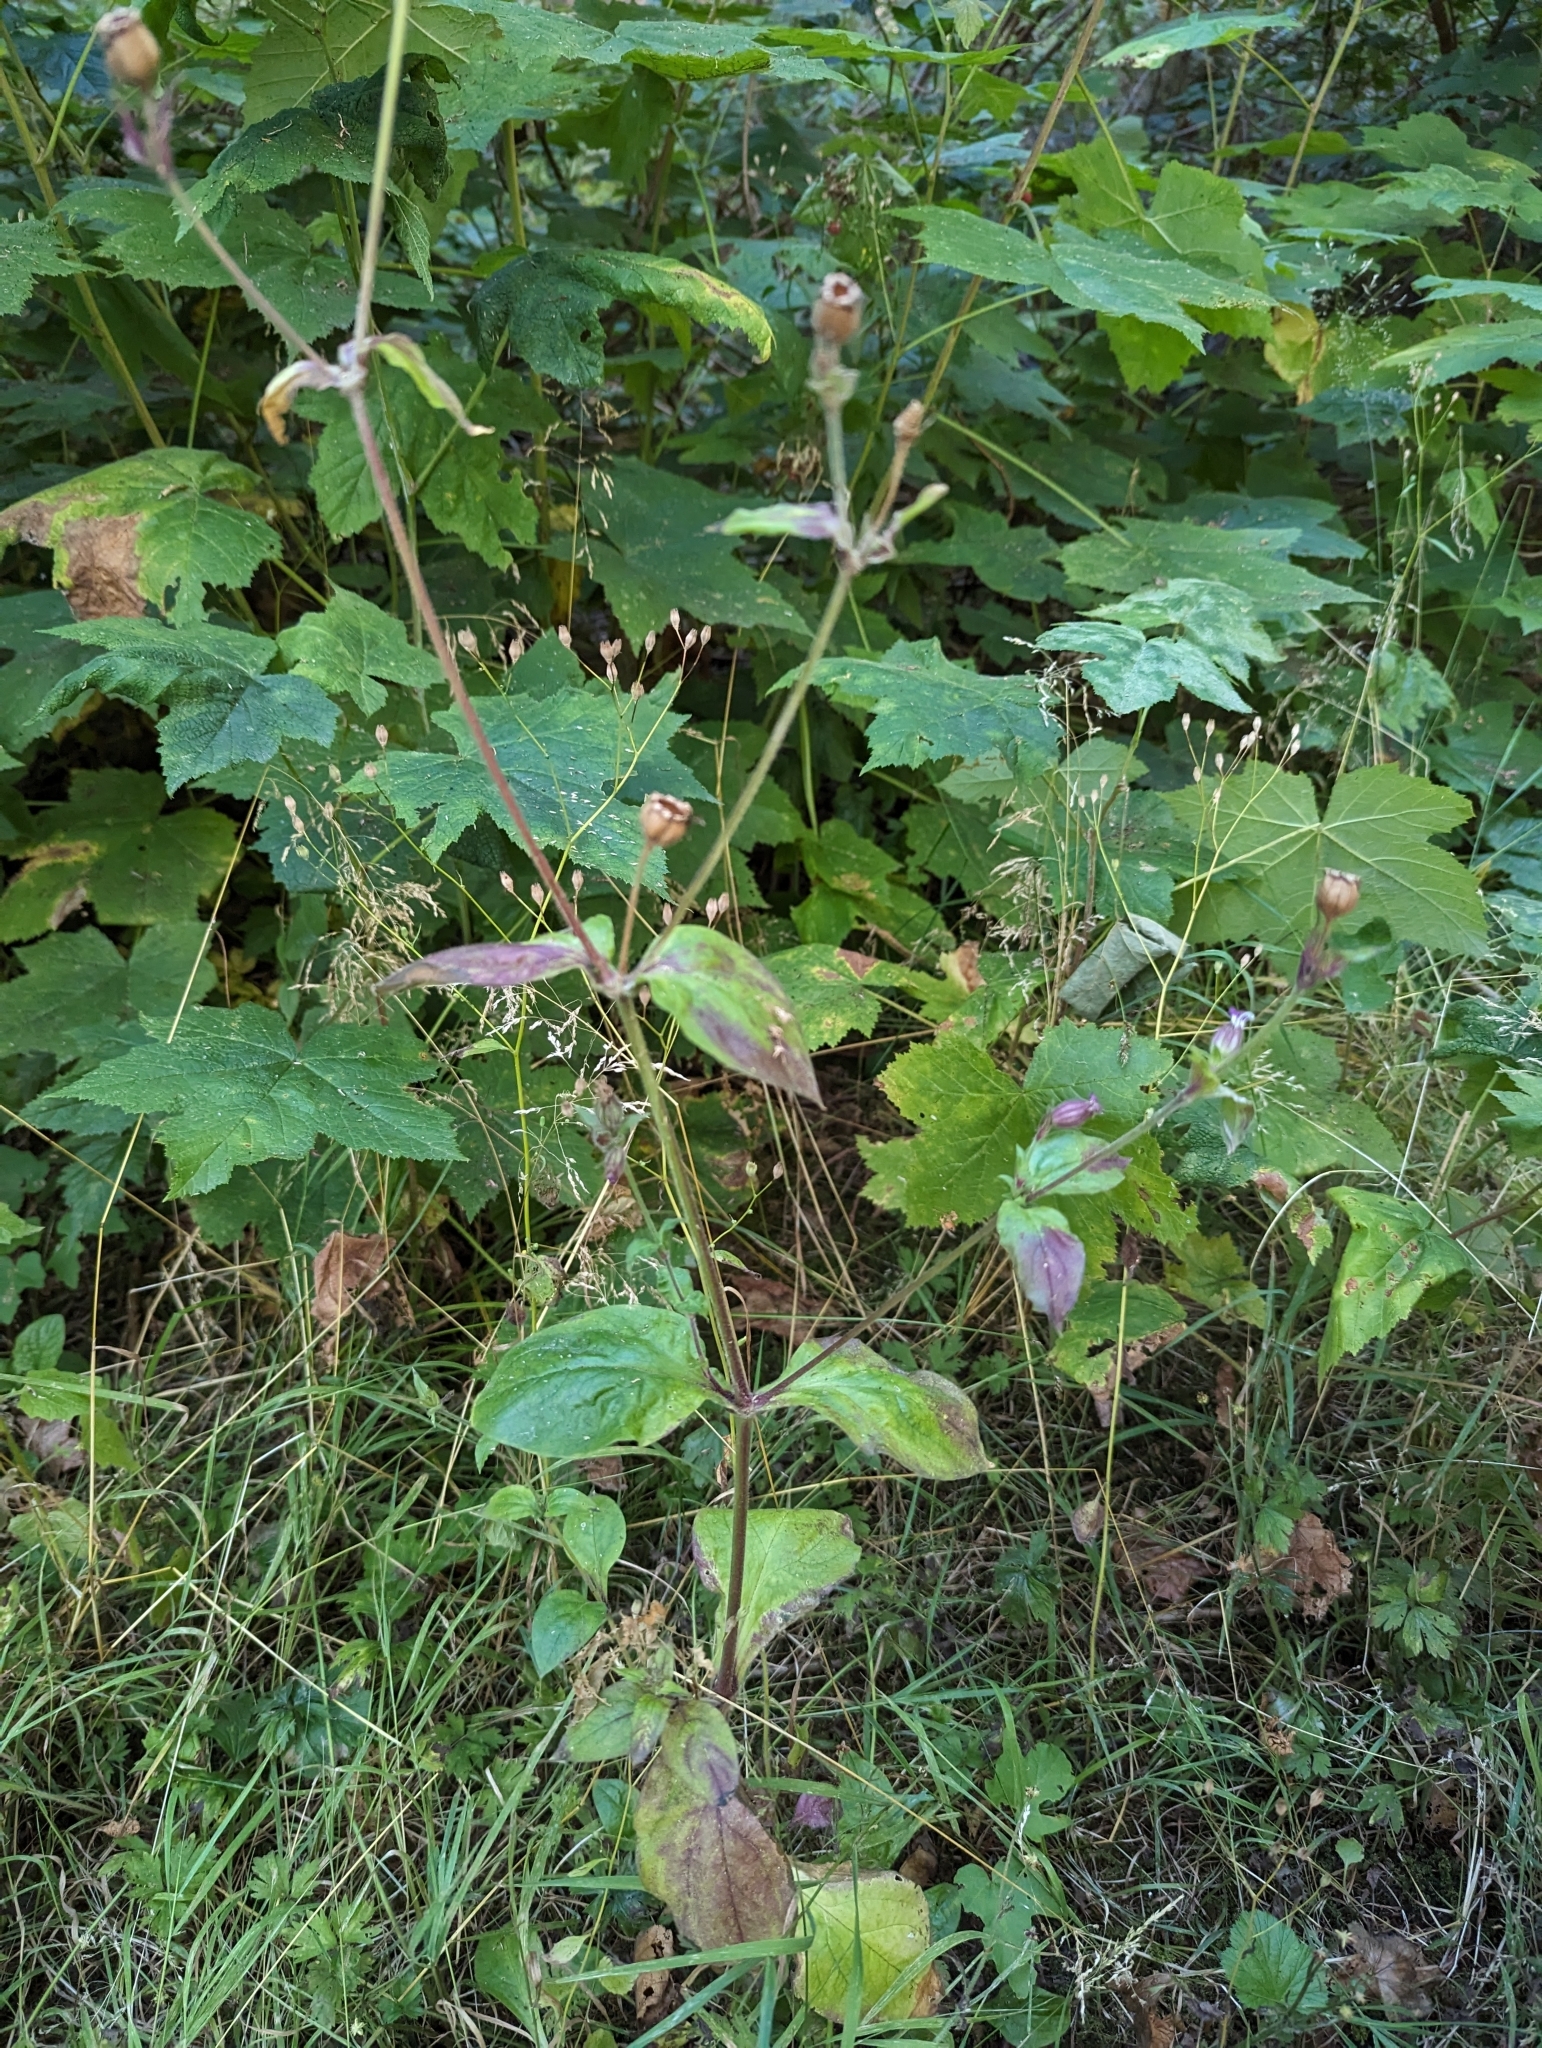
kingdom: Plantae
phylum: Tracheophyta
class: Magnoliopsida
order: Caryophyllales
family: Caryophyllaceae
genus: Silene
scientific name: Silene dioica
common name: Red campion
